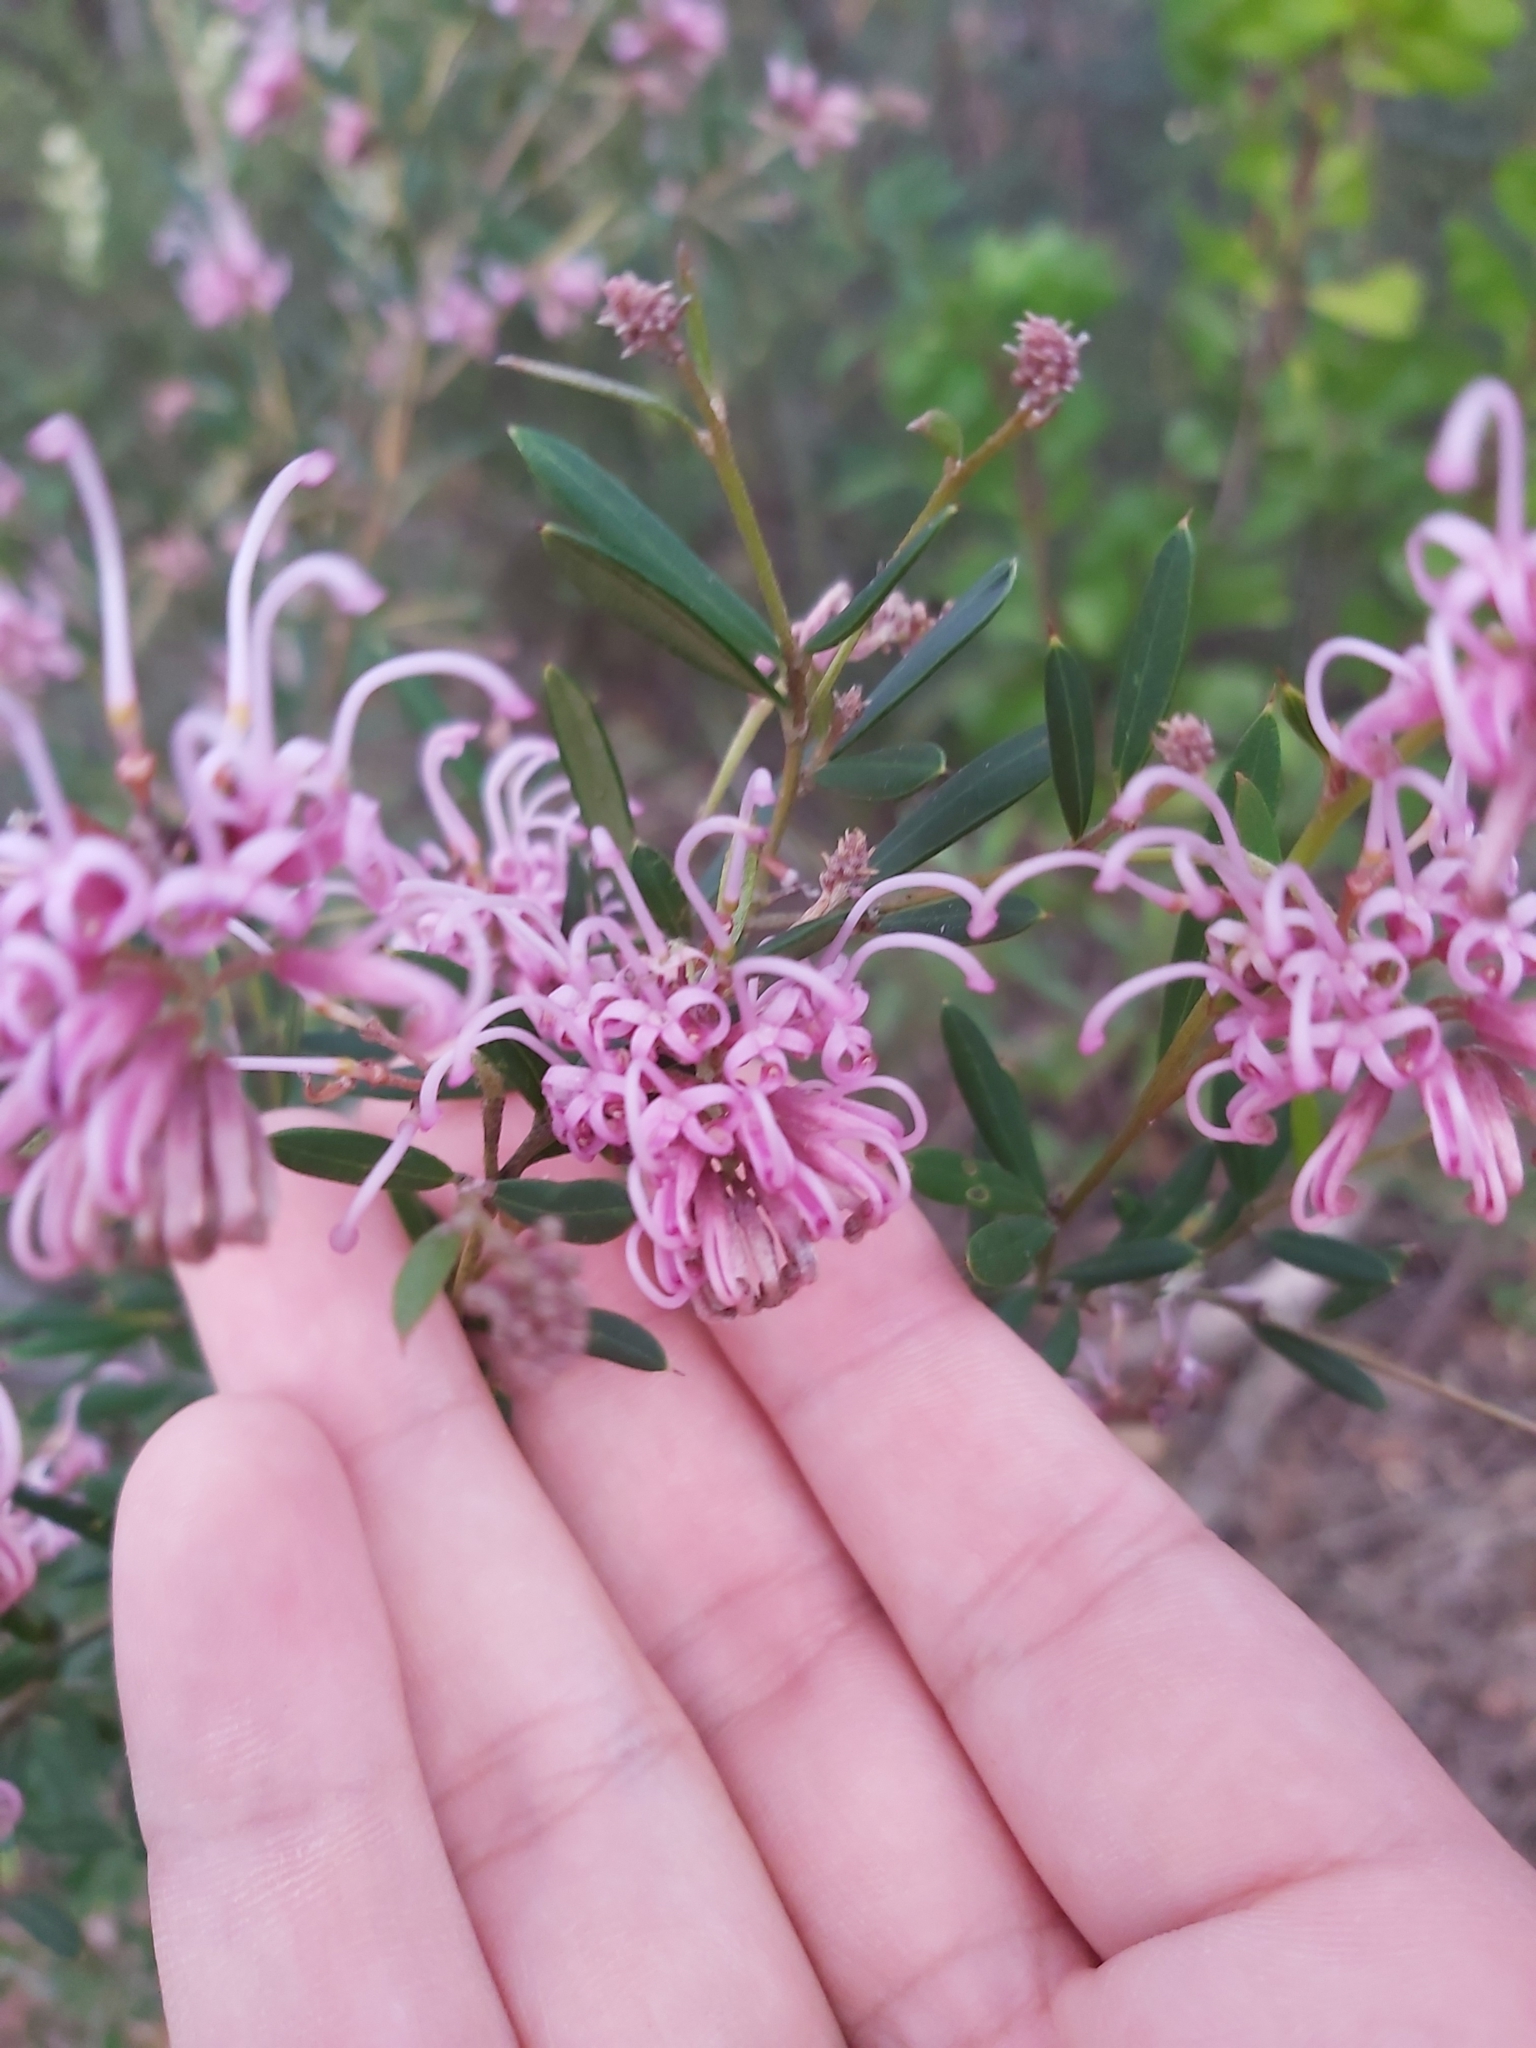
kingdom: Plantae
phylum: Tracheophyta
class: Magnoliopsida
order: Proteales
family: Proteaceae
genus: Grevillea
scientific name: Grevillea sericea
